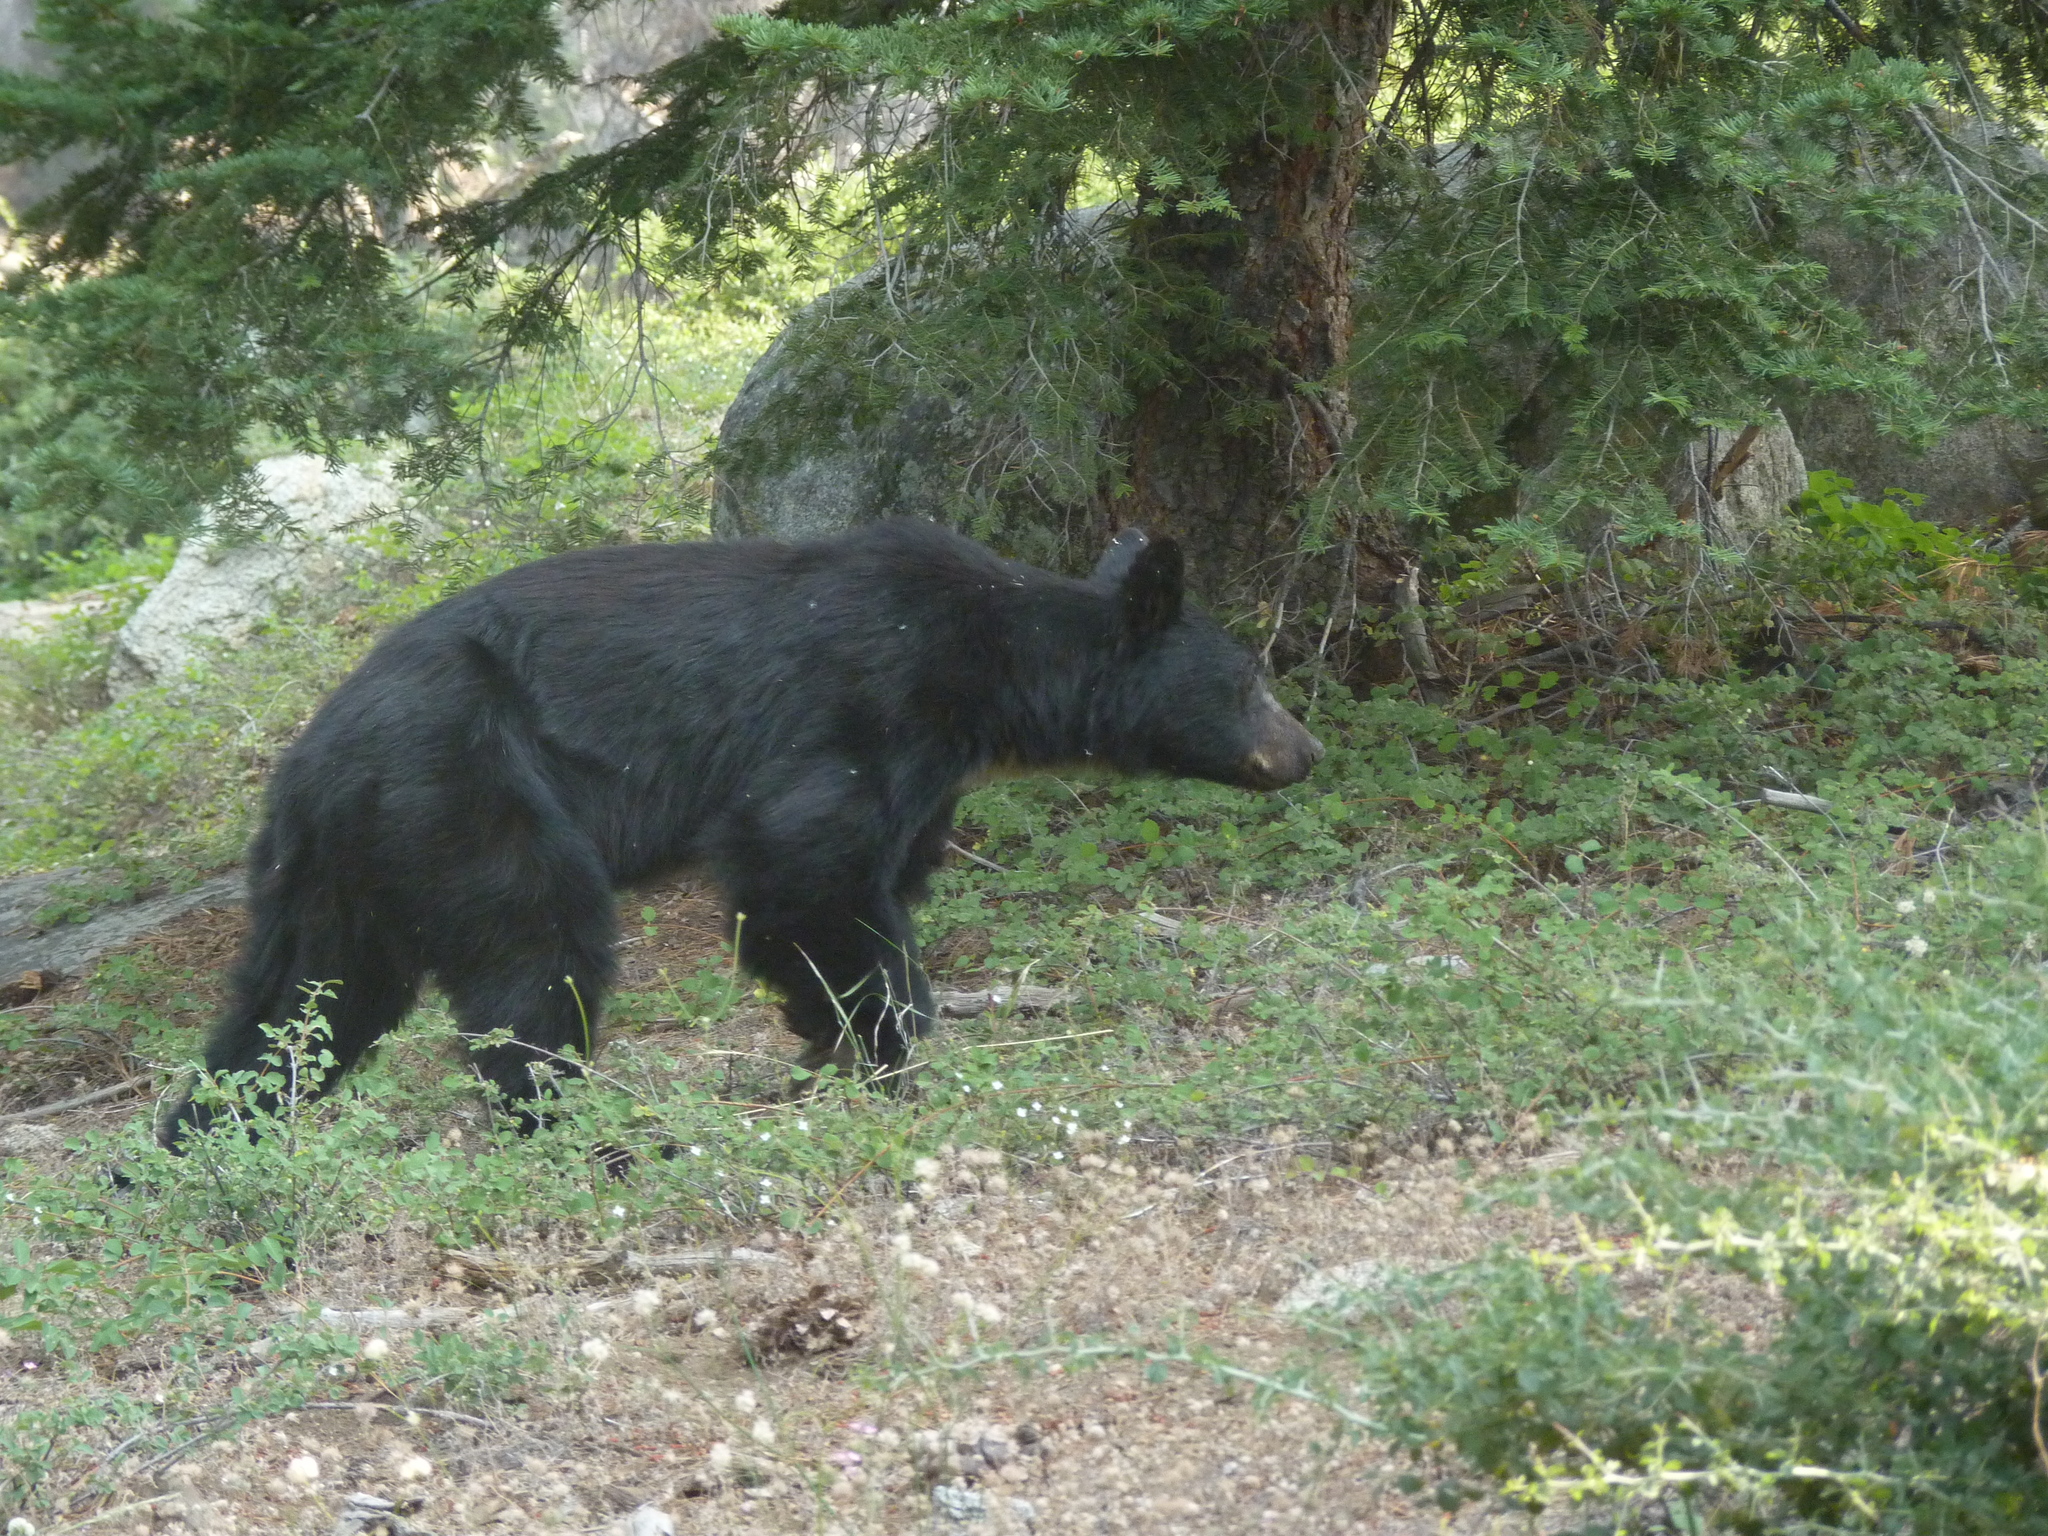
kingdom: Animalia
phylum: Chordata
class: Mammalia
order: Carnivora
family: Ursidae
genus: Ursus
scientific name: Ursus americanus
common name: American black bear
